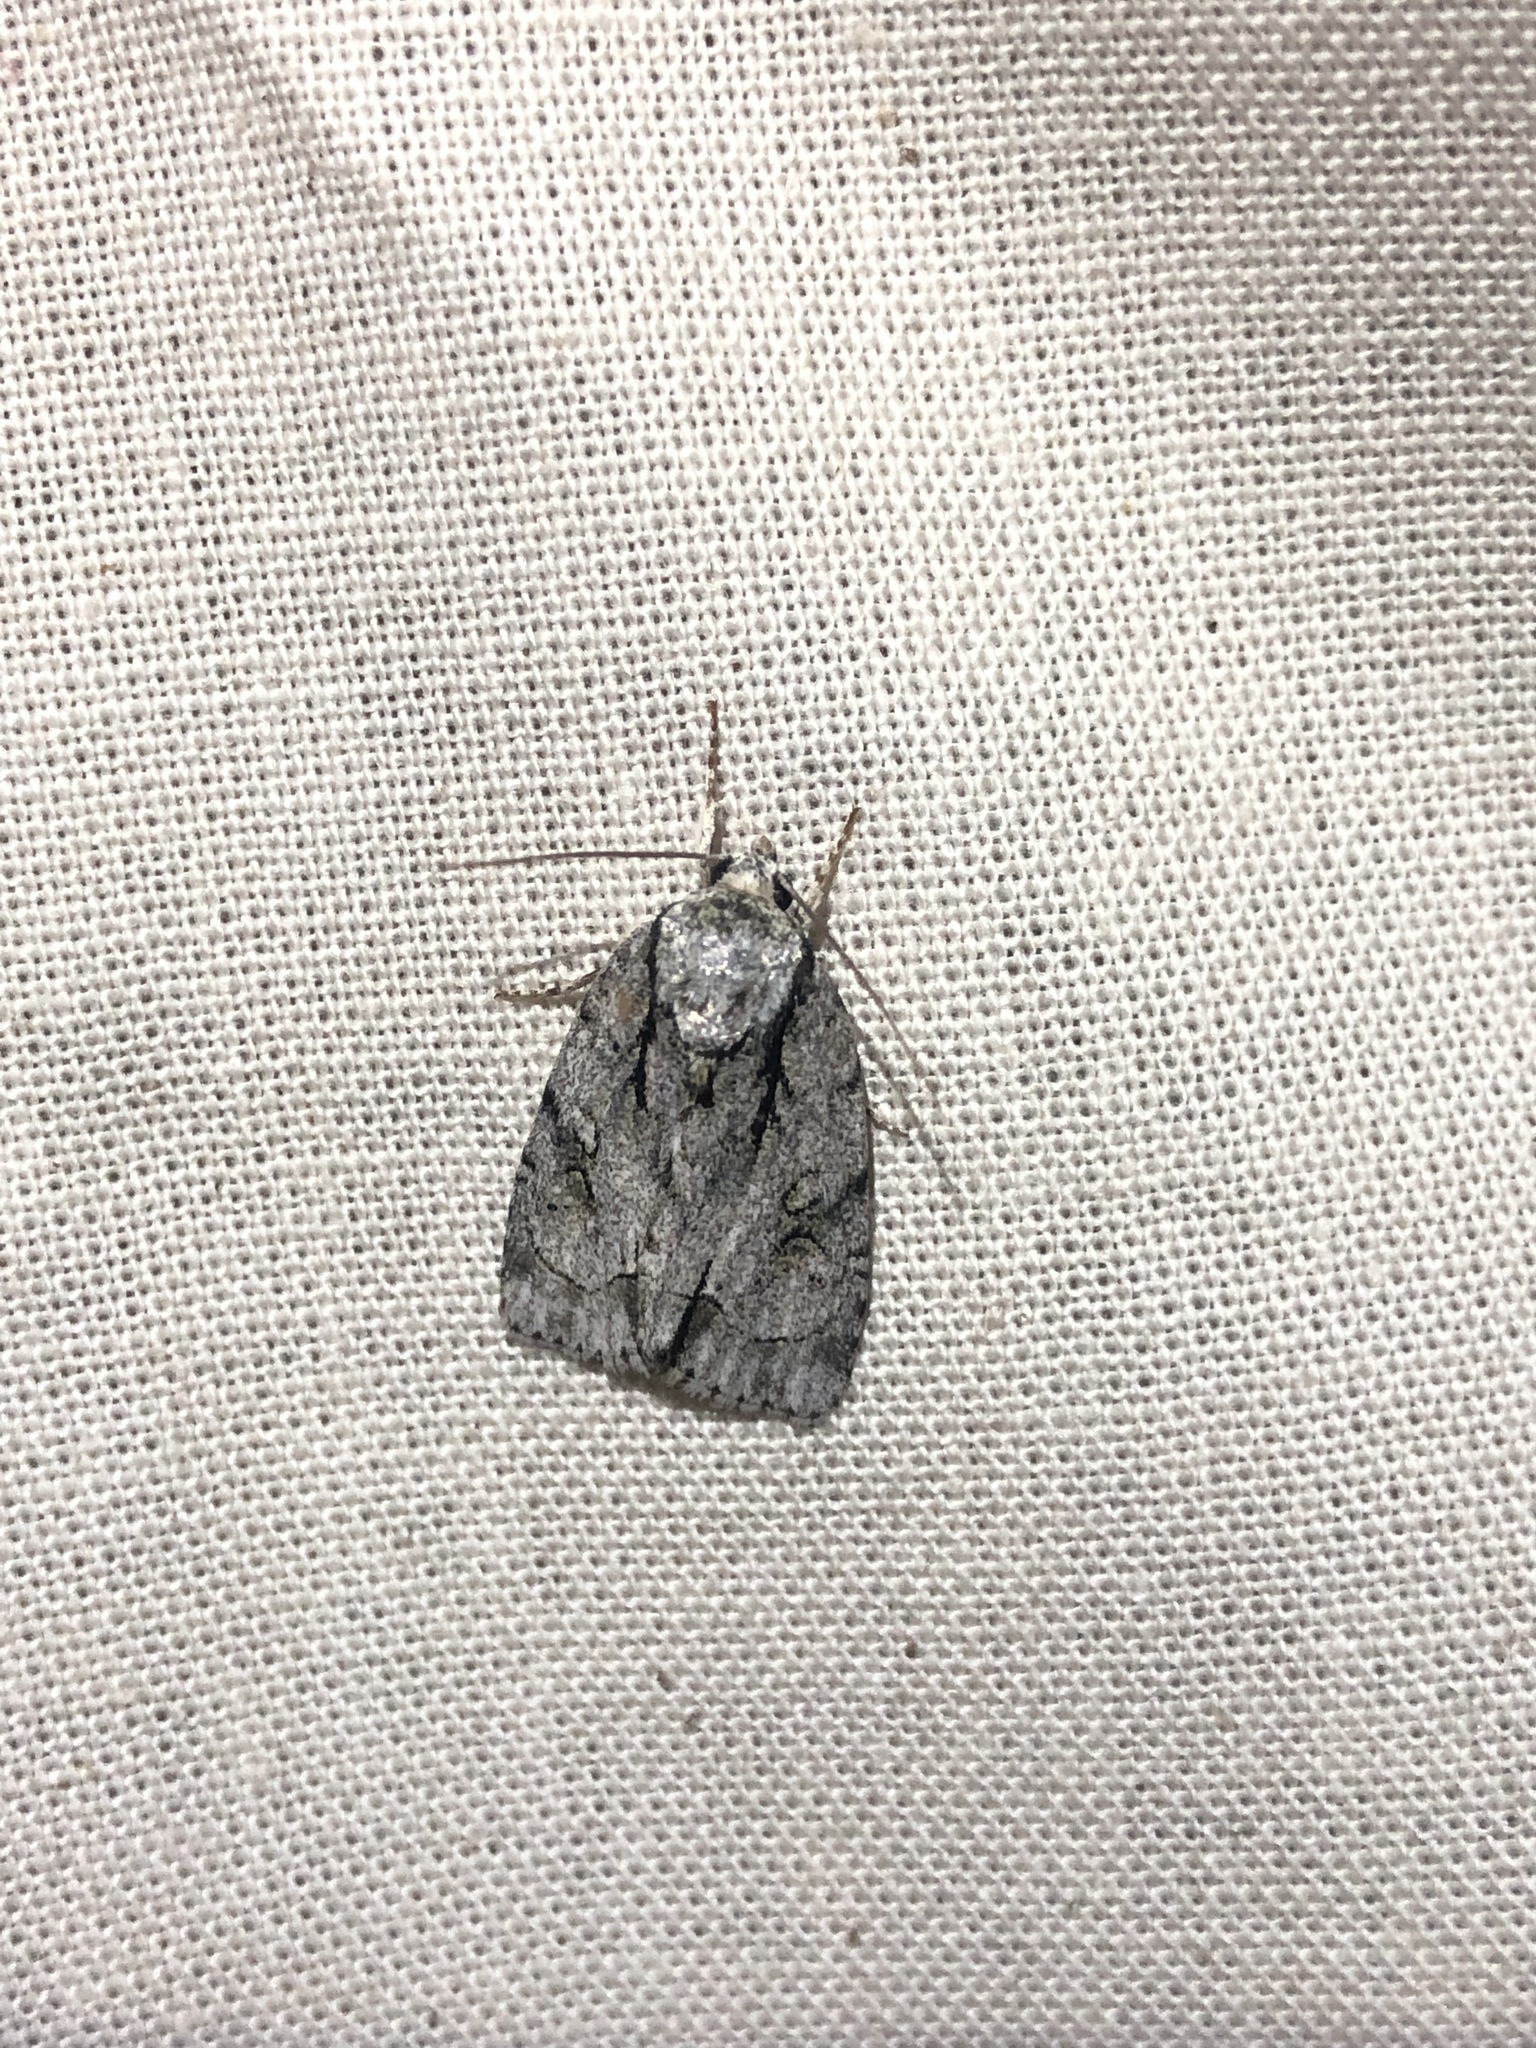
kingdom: Animalia
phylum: Arthropoda
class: Insecta
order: Lepidoptera
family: Noctuidae
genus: Acronicta
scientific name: Acronicta vinnula
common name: Delightful dagger
